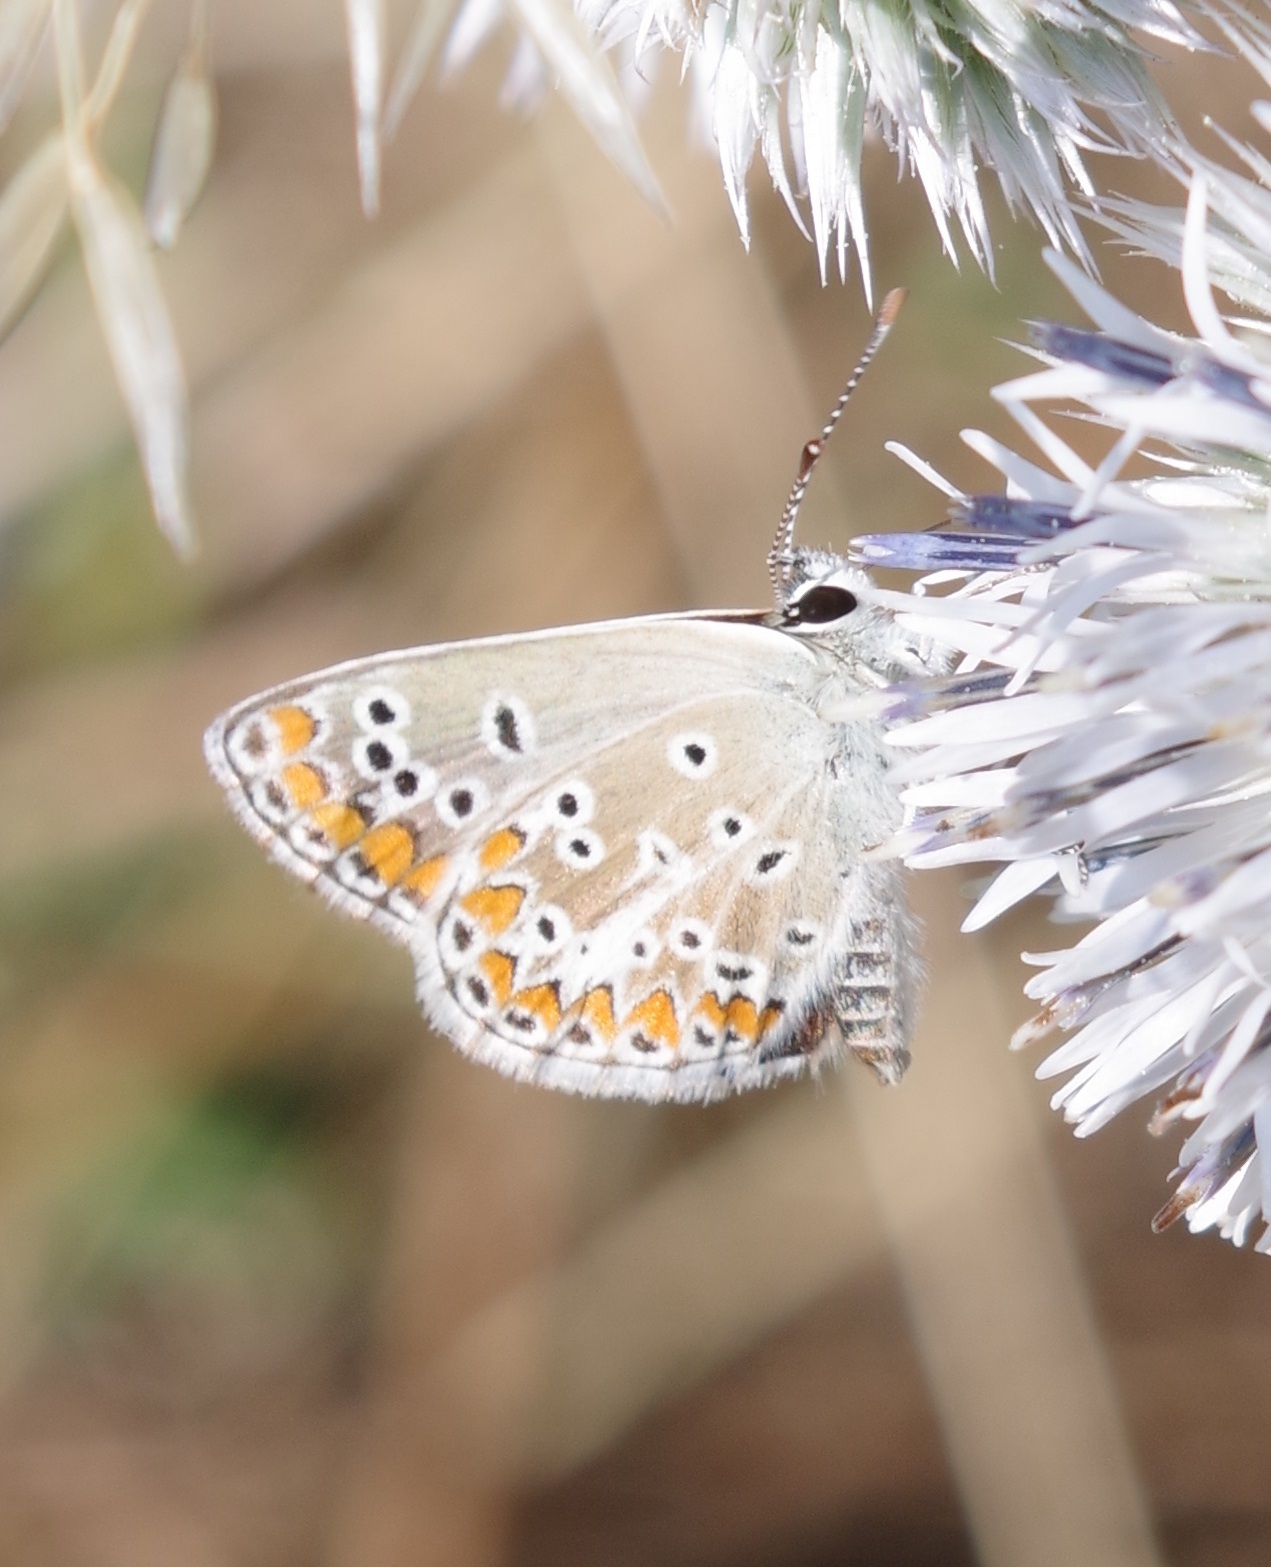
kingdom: Animalia
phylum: Arthropoda
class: Insecta
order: Lepidoptera
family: Lycaenidae
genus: Aricia
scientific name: Aricia agestis
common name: Brown argus
